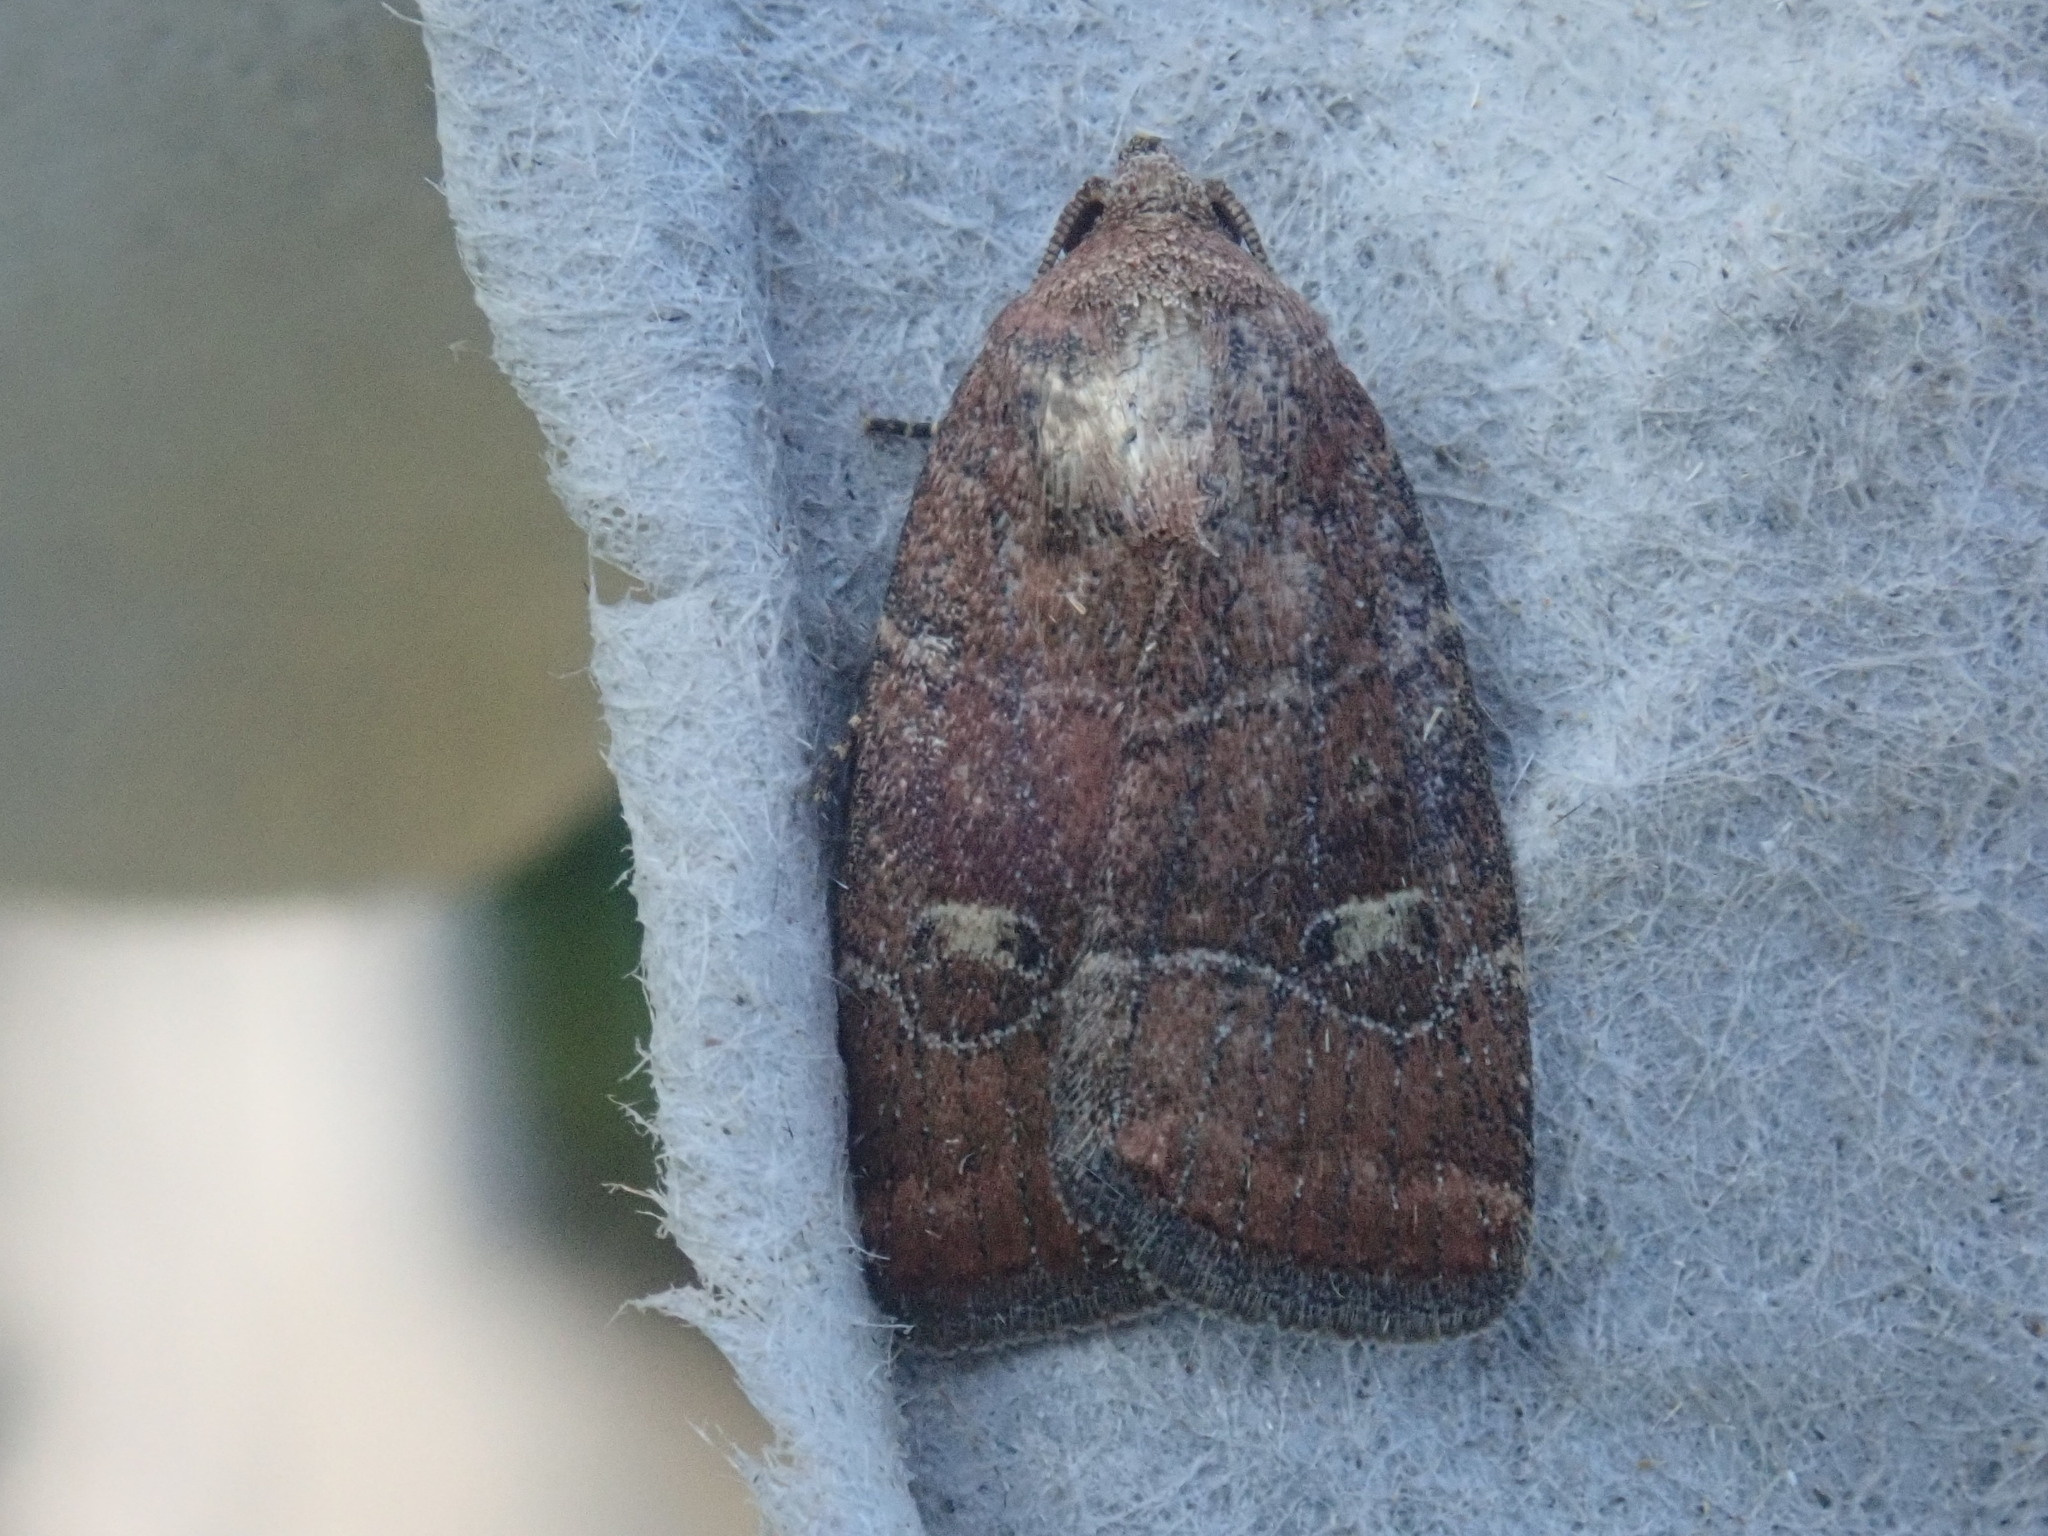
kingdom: Animalia
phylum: Arthropoda
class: Insecta
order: Lepidoptera
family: Noctuidae
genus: Elaphria
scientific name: Elaphria grata
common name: Grateful midget moth
